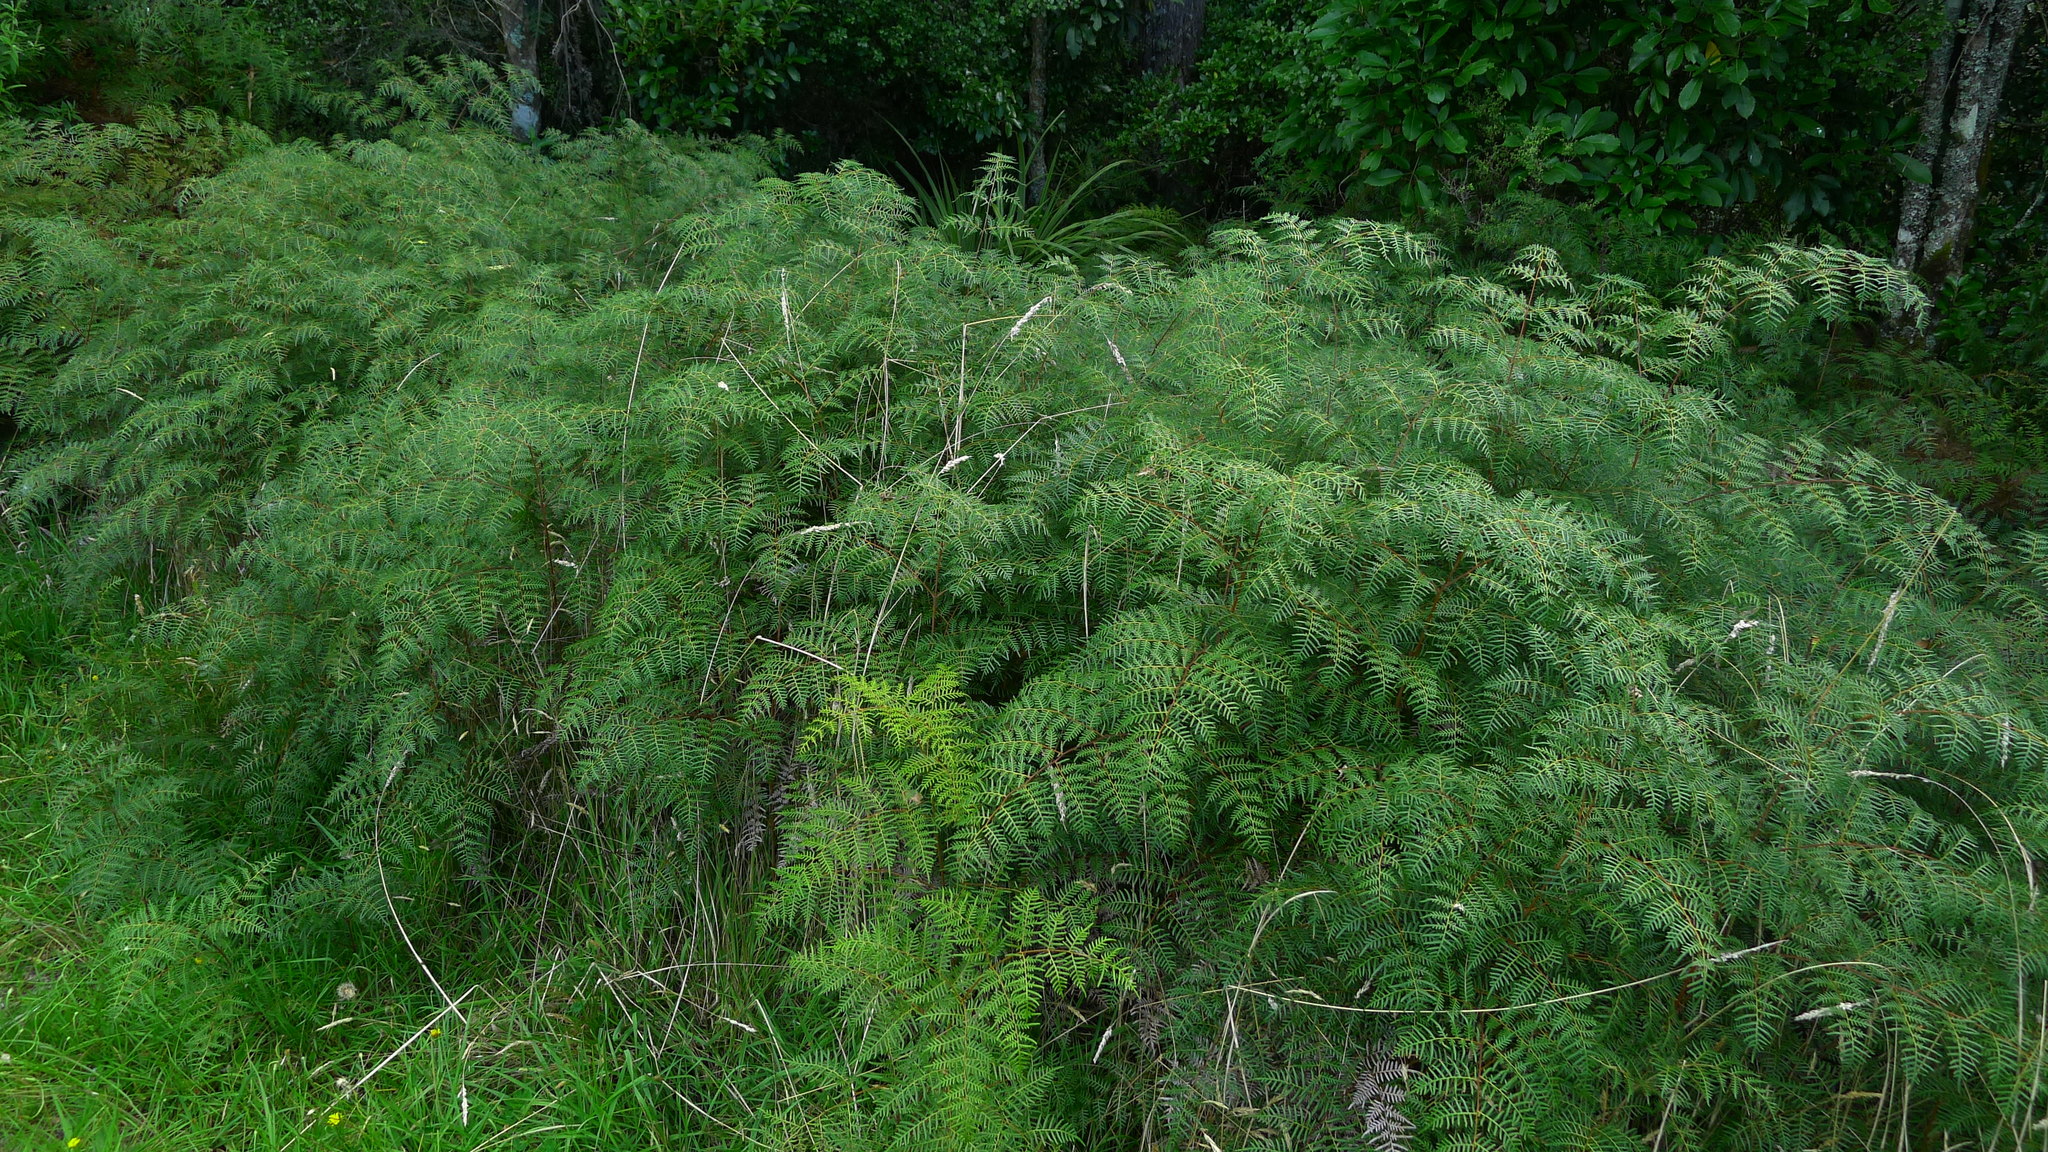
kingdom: Plantae
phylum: Tracheophyta
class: Polypodiopsida
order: Polypodiales
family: Dennstaedtiaceae
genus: Pteridium
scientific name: Pteridium esculentum
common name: Bracken fern
